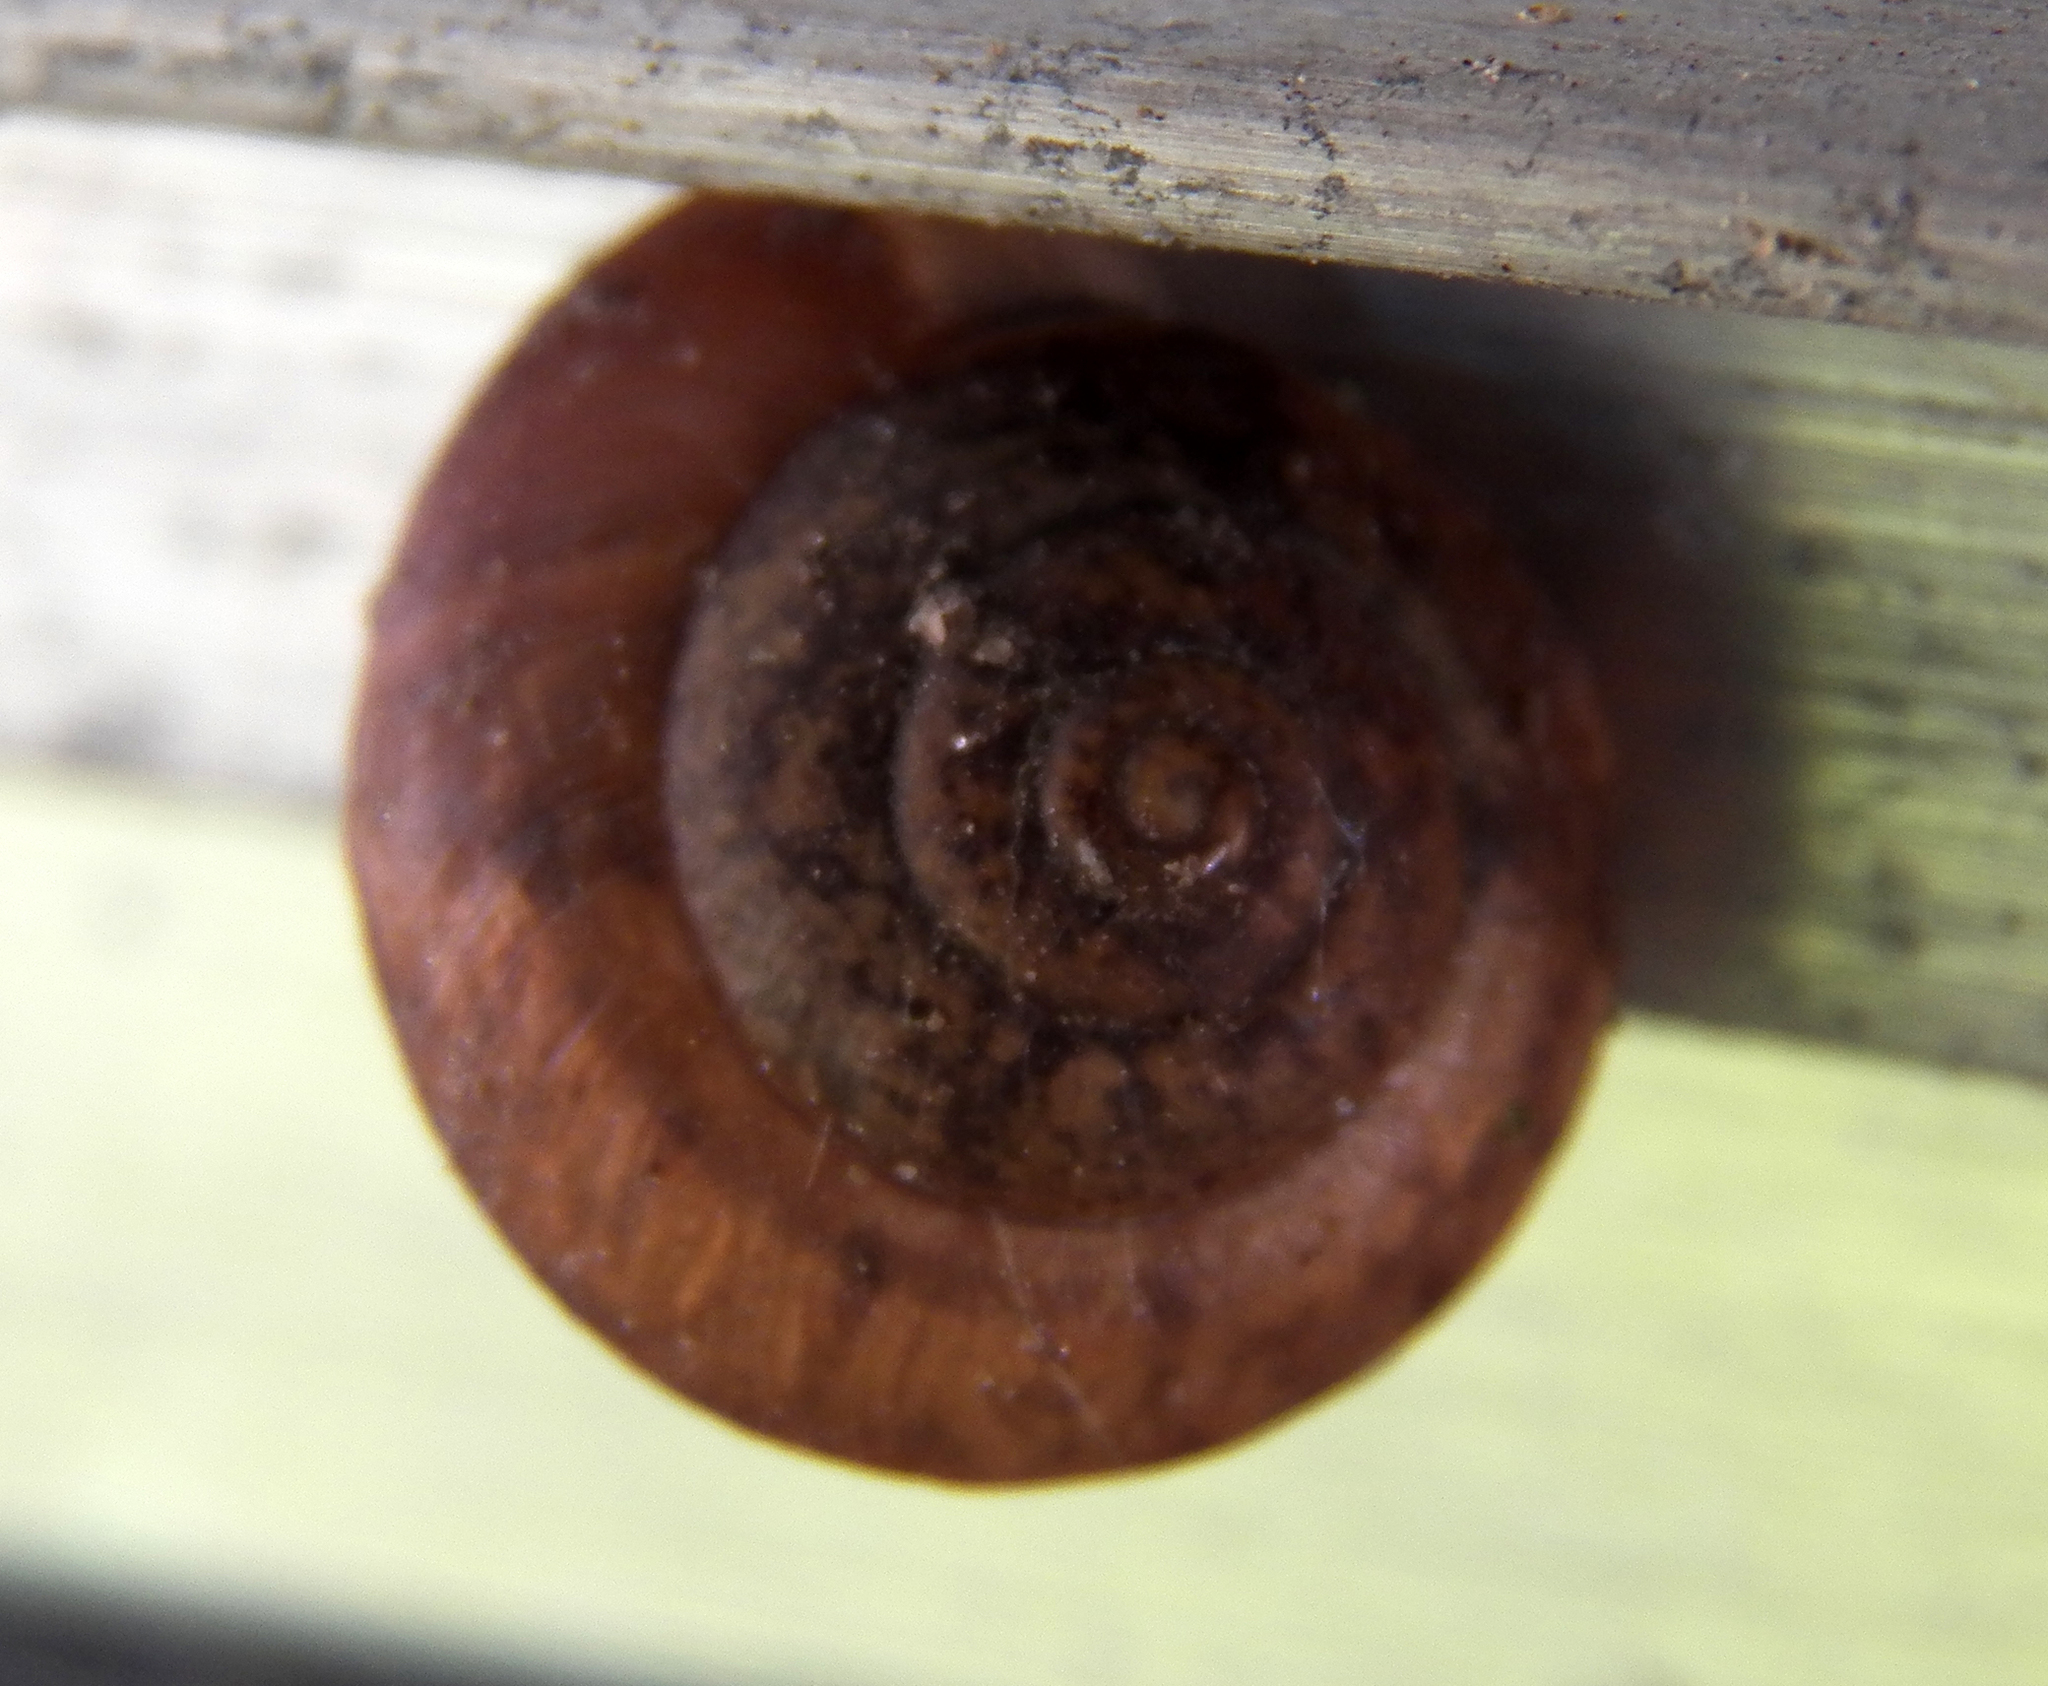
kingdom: Animalia
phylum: Mollusca
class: Gastropoda
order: Stylommatophora
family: Camaenidae
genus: Bradybaena
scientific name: Bradybaena similaris
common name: Asian trampsnail
